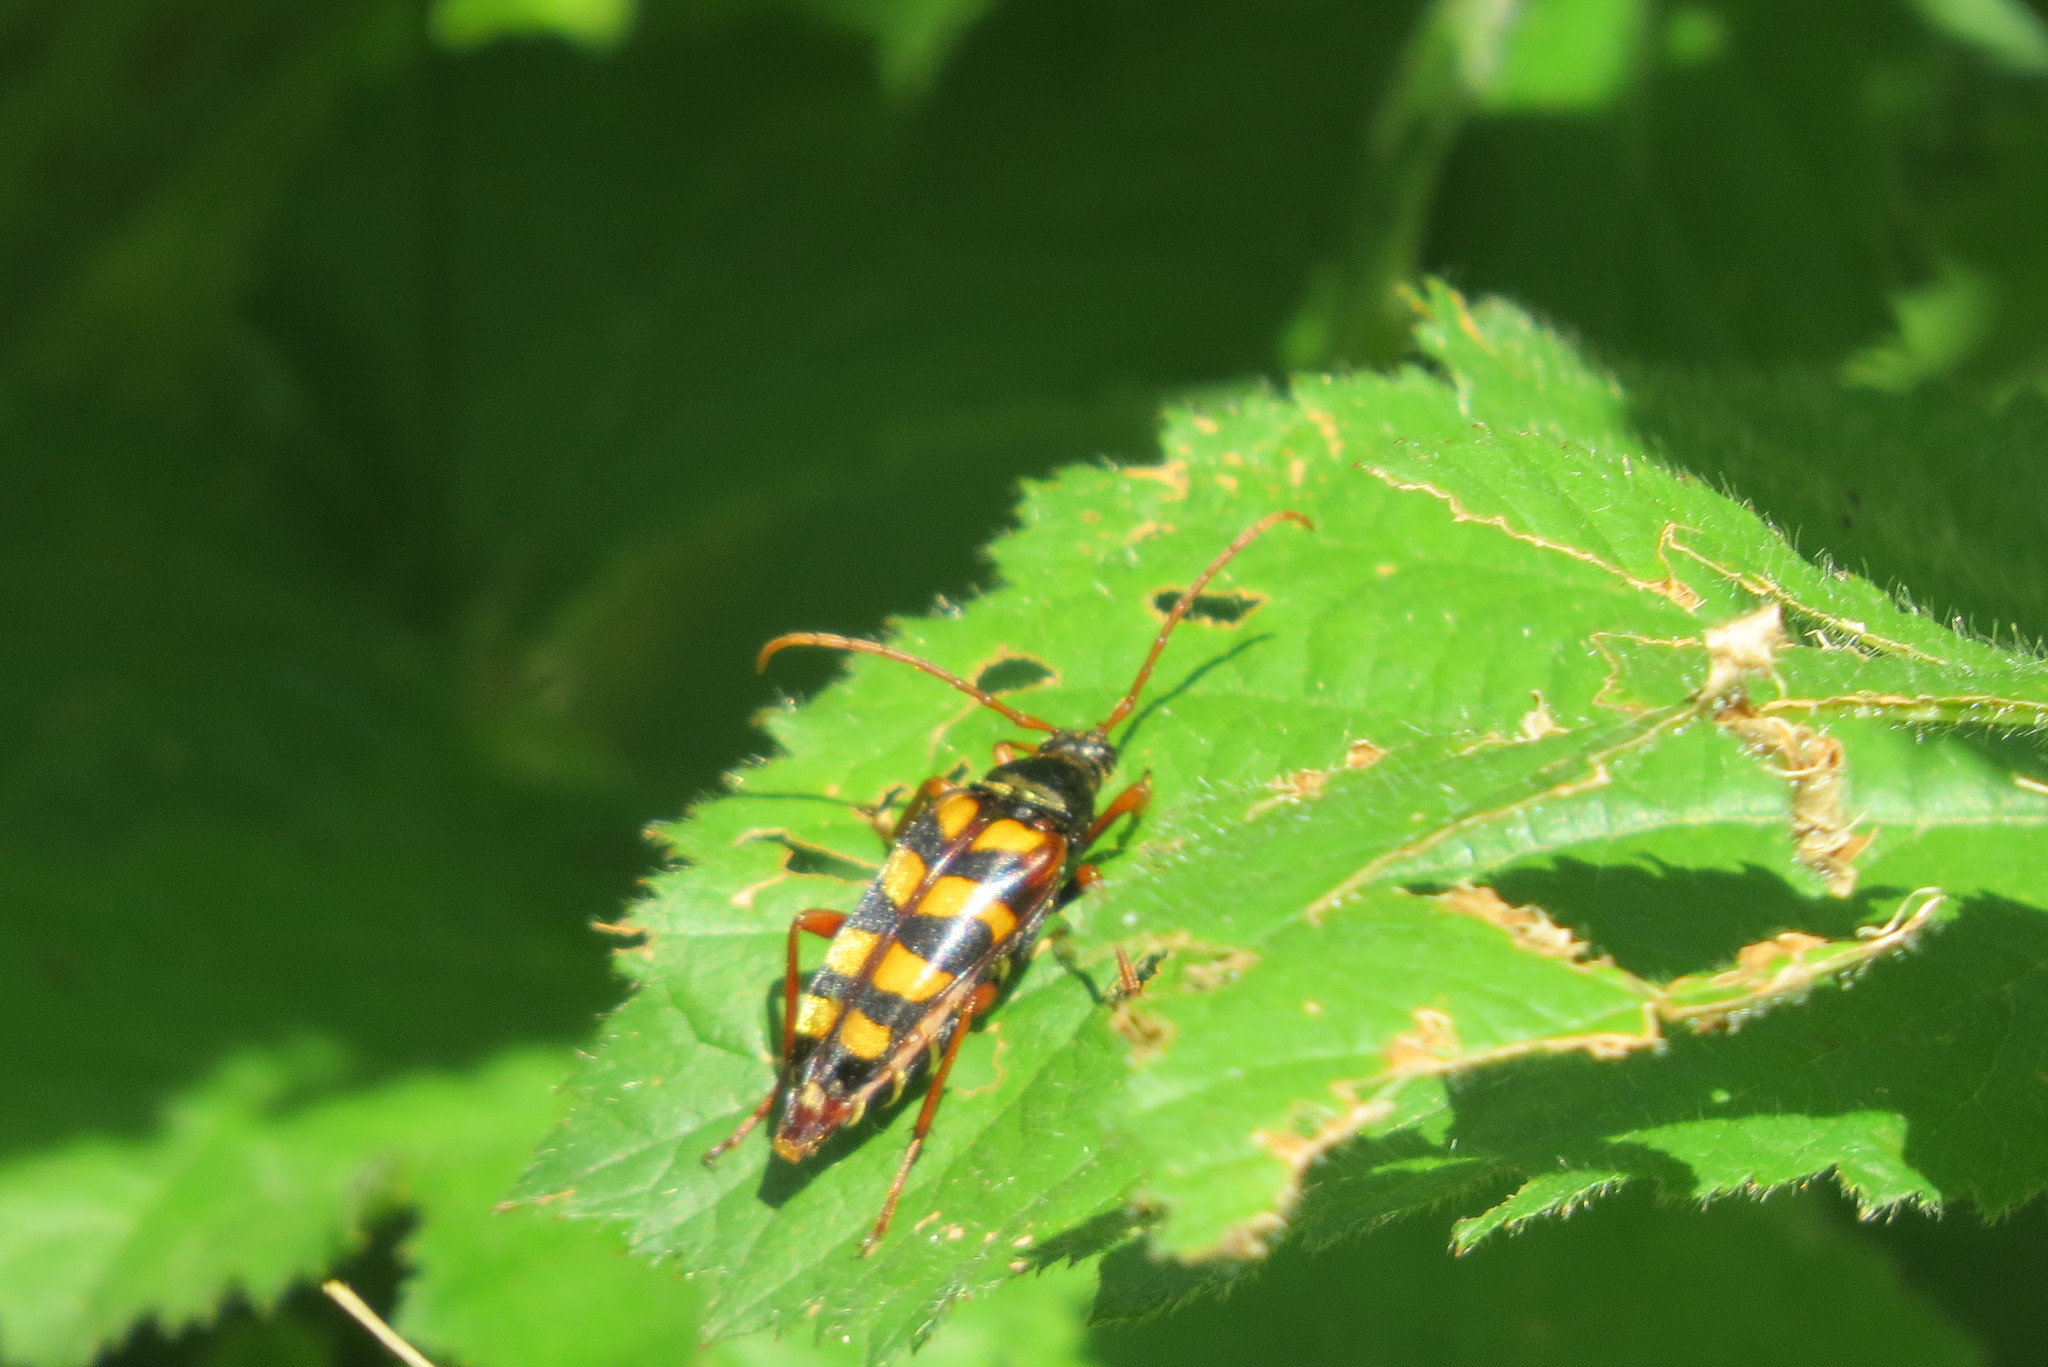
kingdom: Animalia
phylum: Arthropoda
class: Insecta
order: Coleoptera
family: Cerambycidae
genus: Leptura
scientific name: Leptura aurulenta
